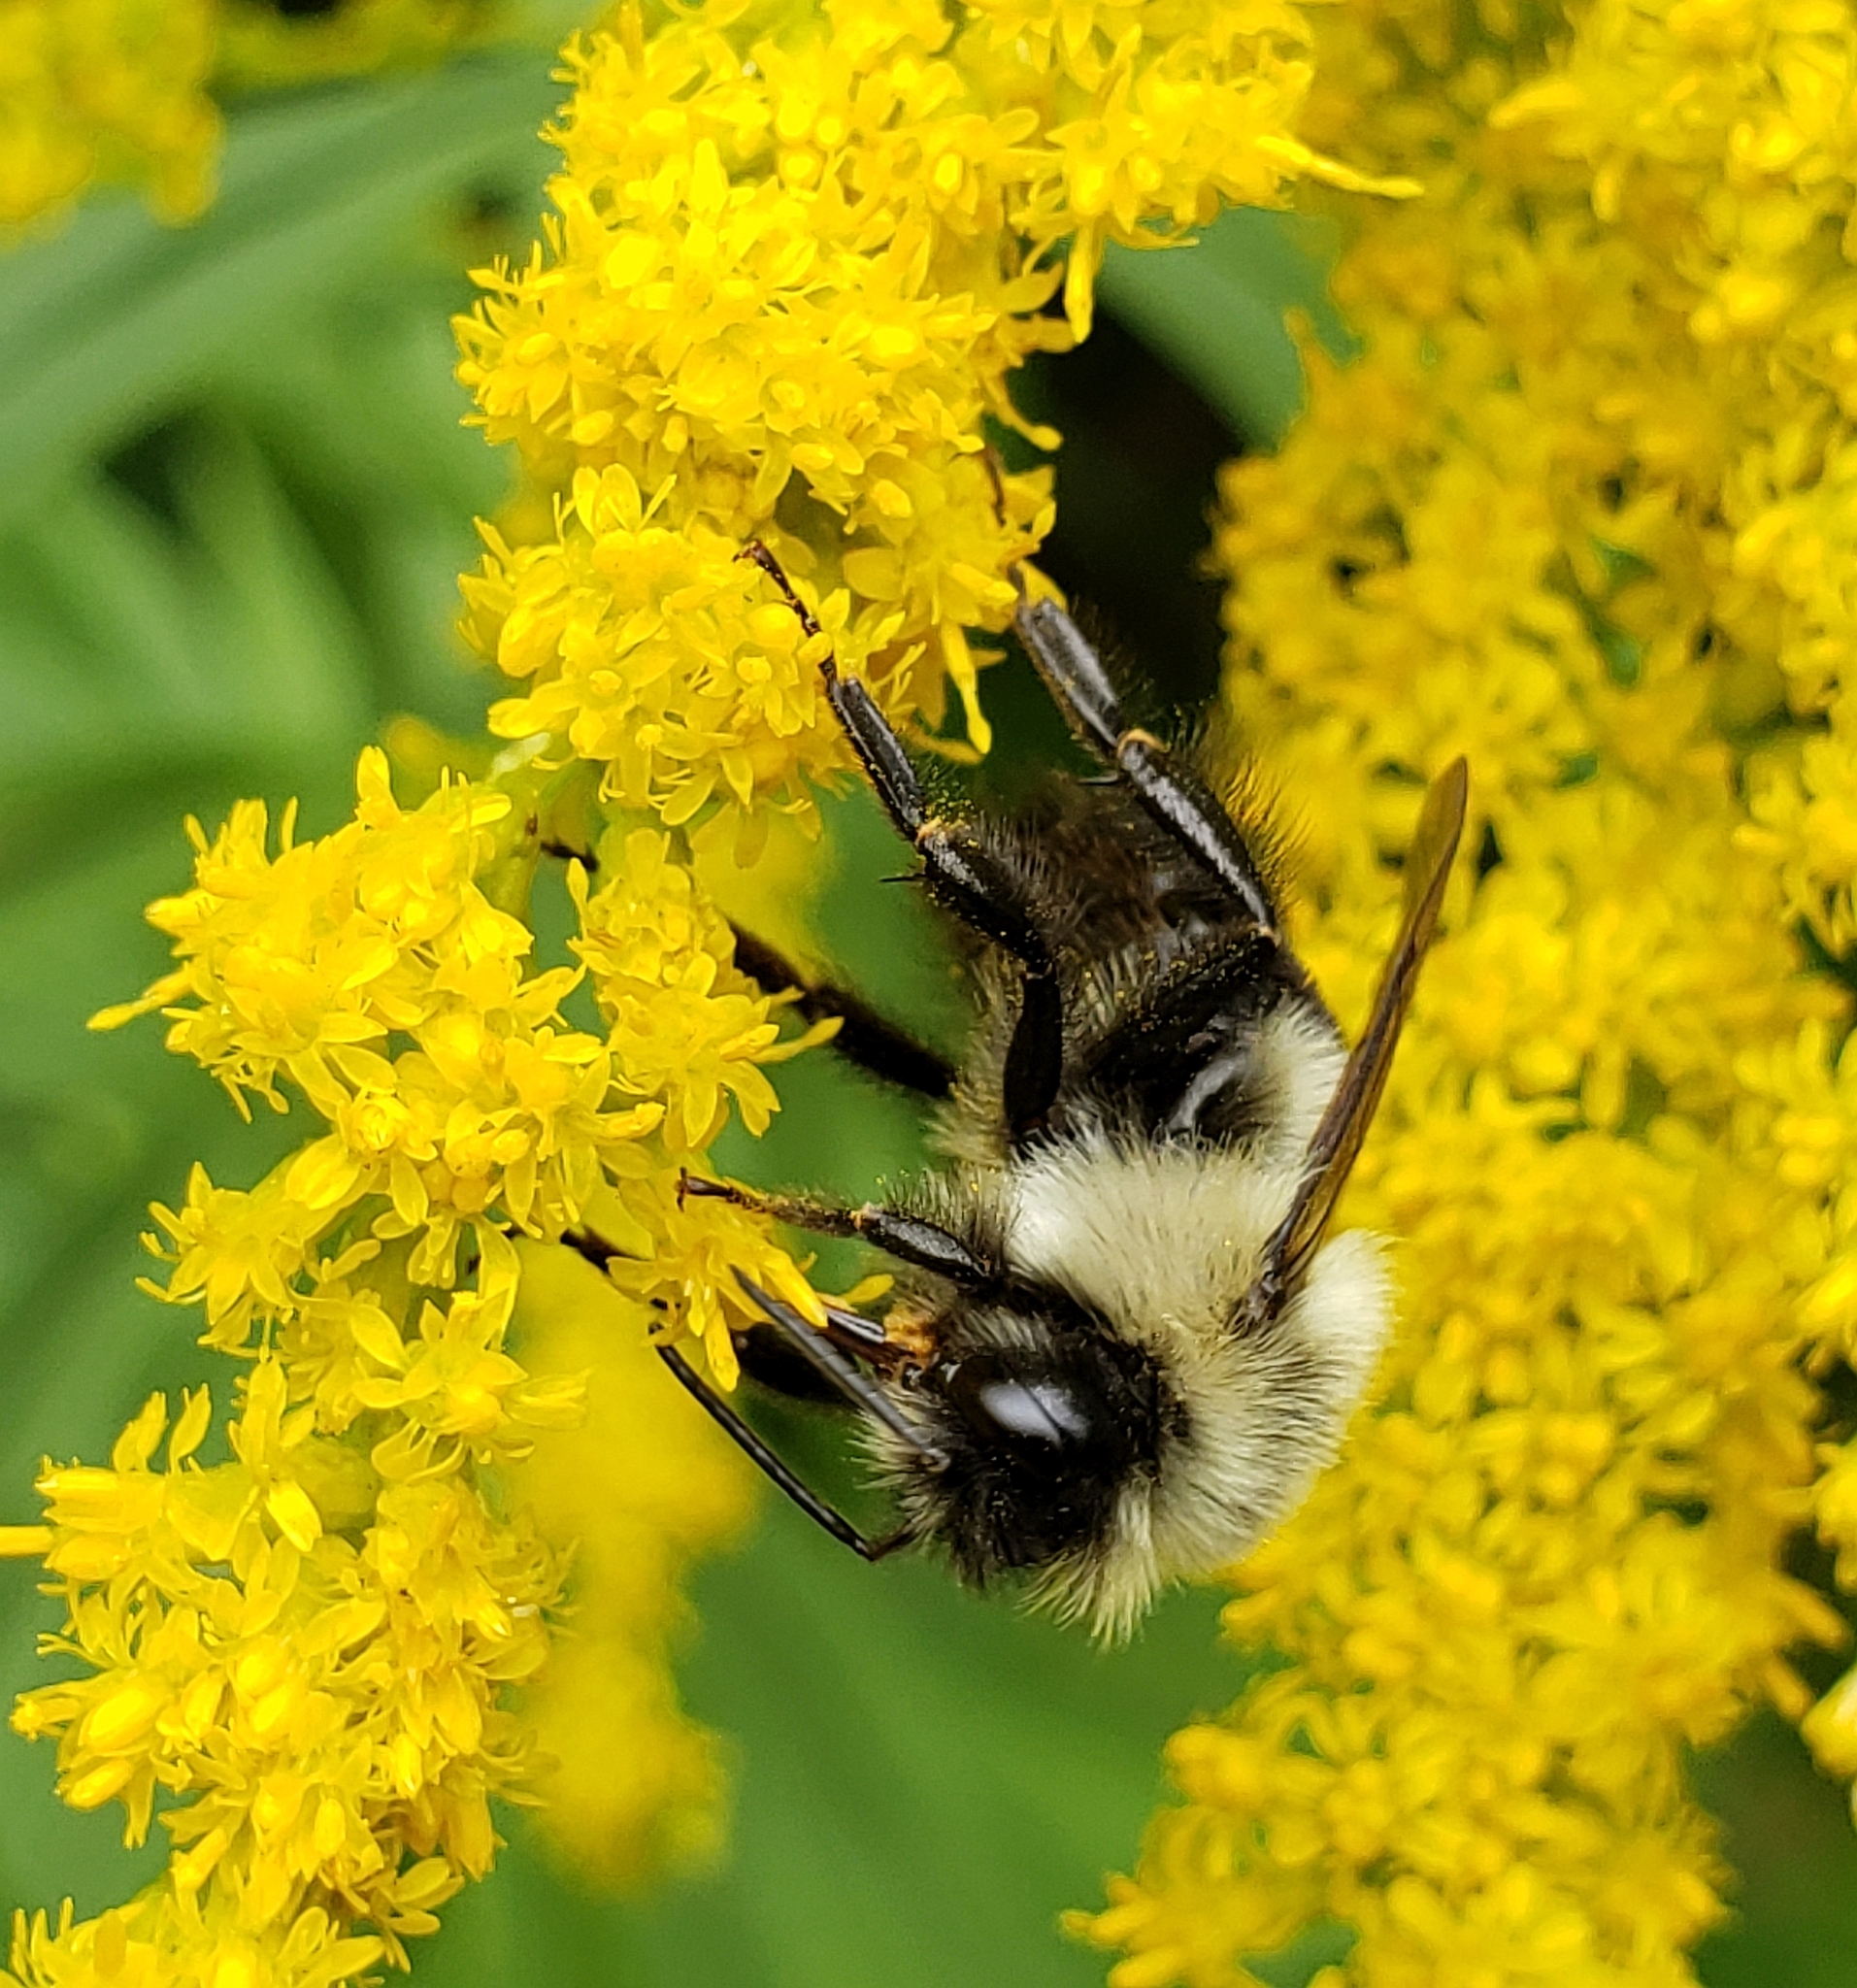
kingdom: Animalia
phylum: Arthropoda
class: Insecta
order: Hymenoptera
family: Apidae
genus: Bombus
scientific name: Bombus impatiens
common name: Common eastern bumble bee
